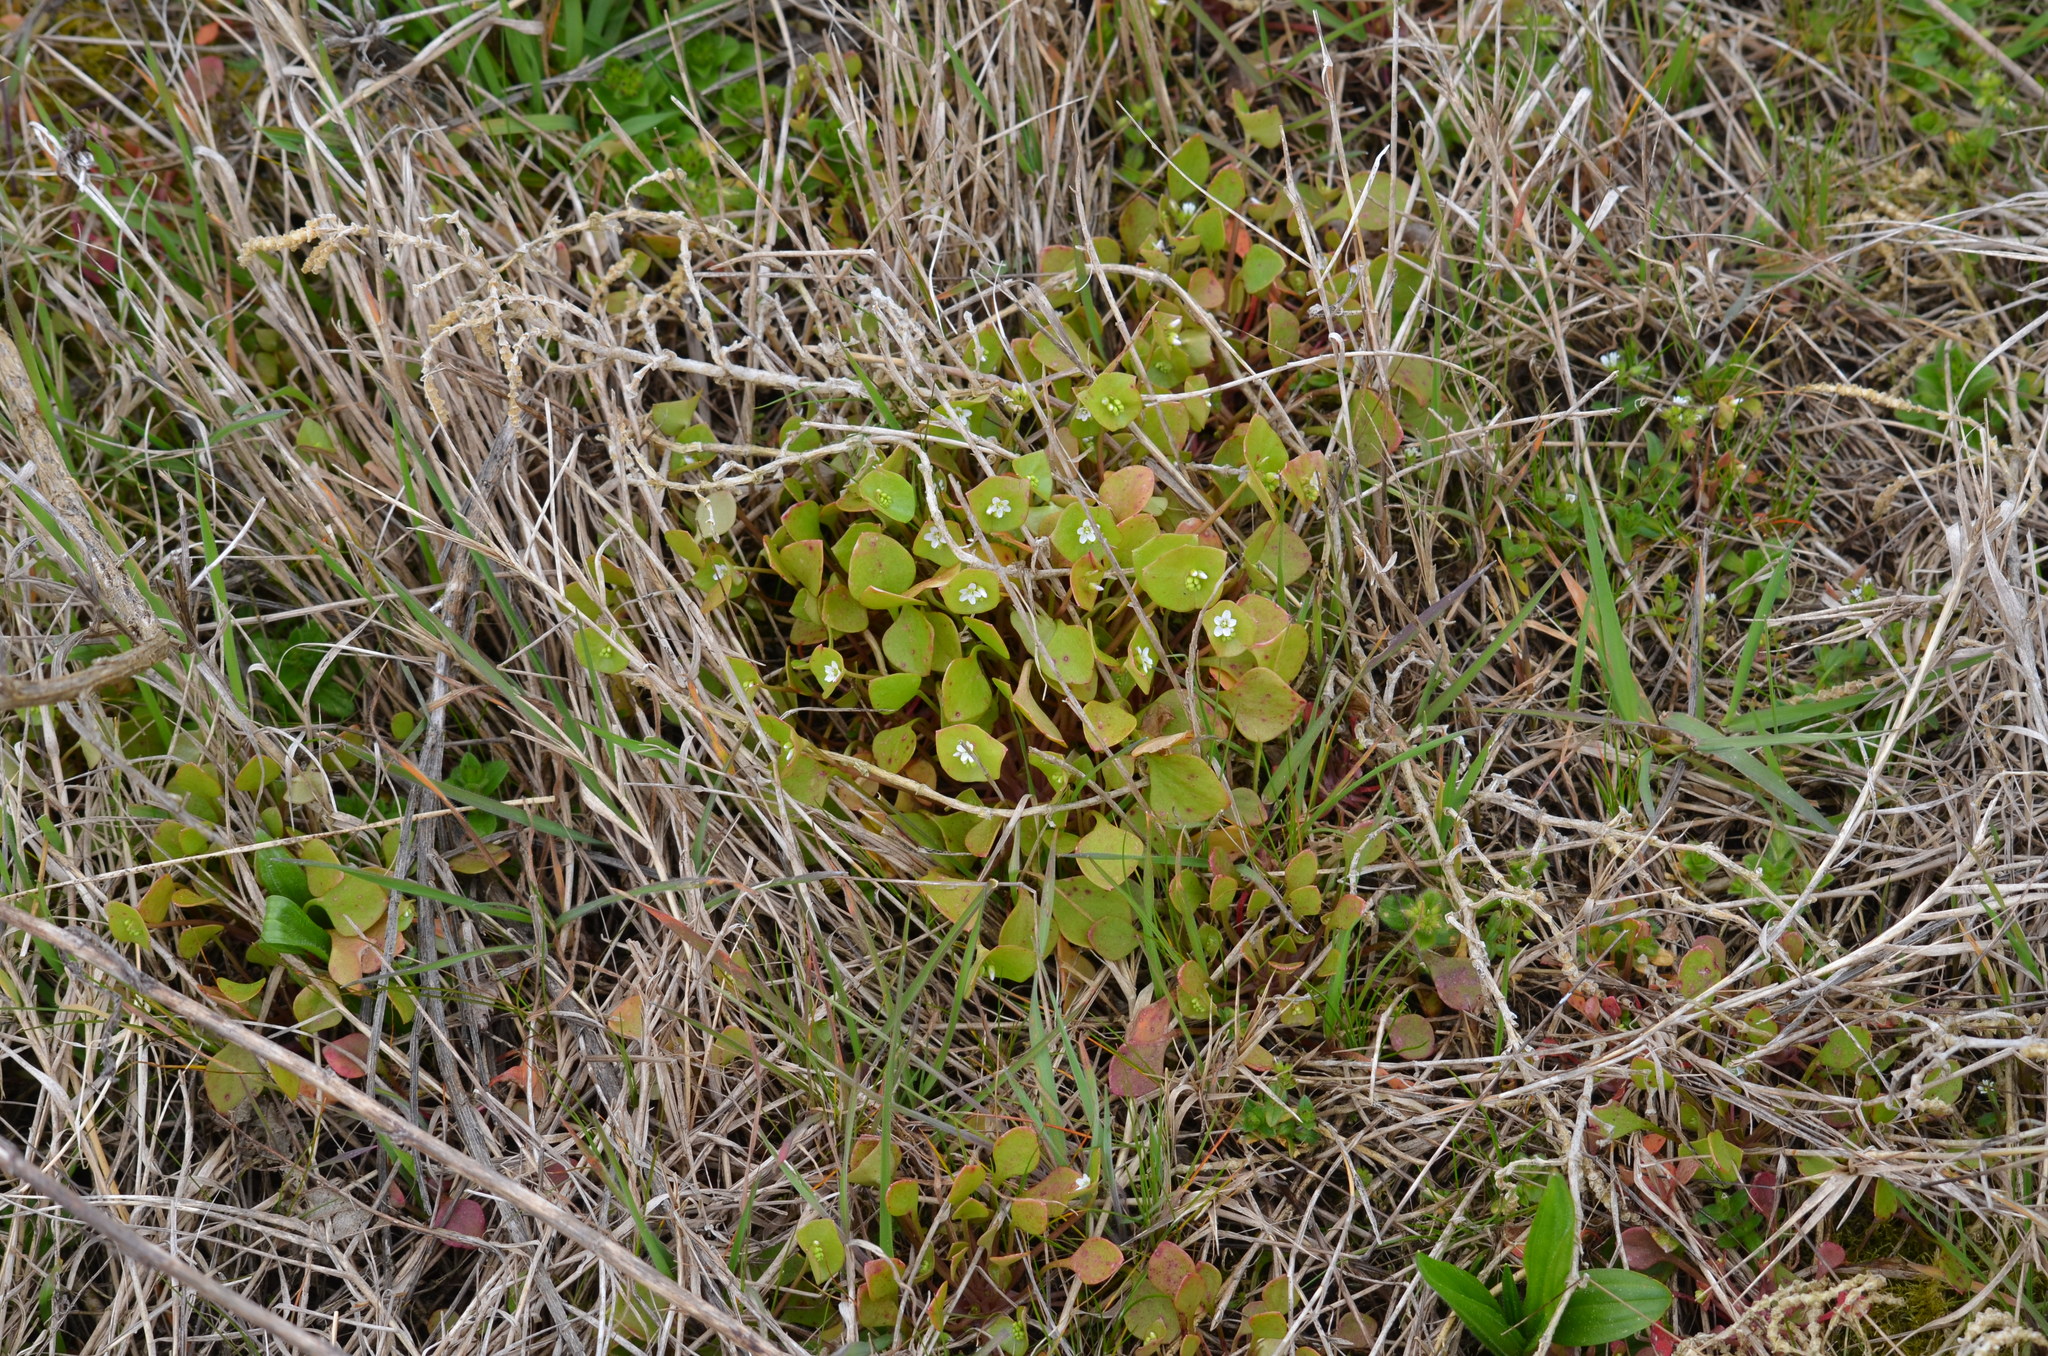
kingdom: Plantae
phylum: Tracheophyta
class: Magnoliopsida
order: Caryophyllales
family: Montiaceae
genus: Claytonia
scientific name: Claytonia perfoliata
